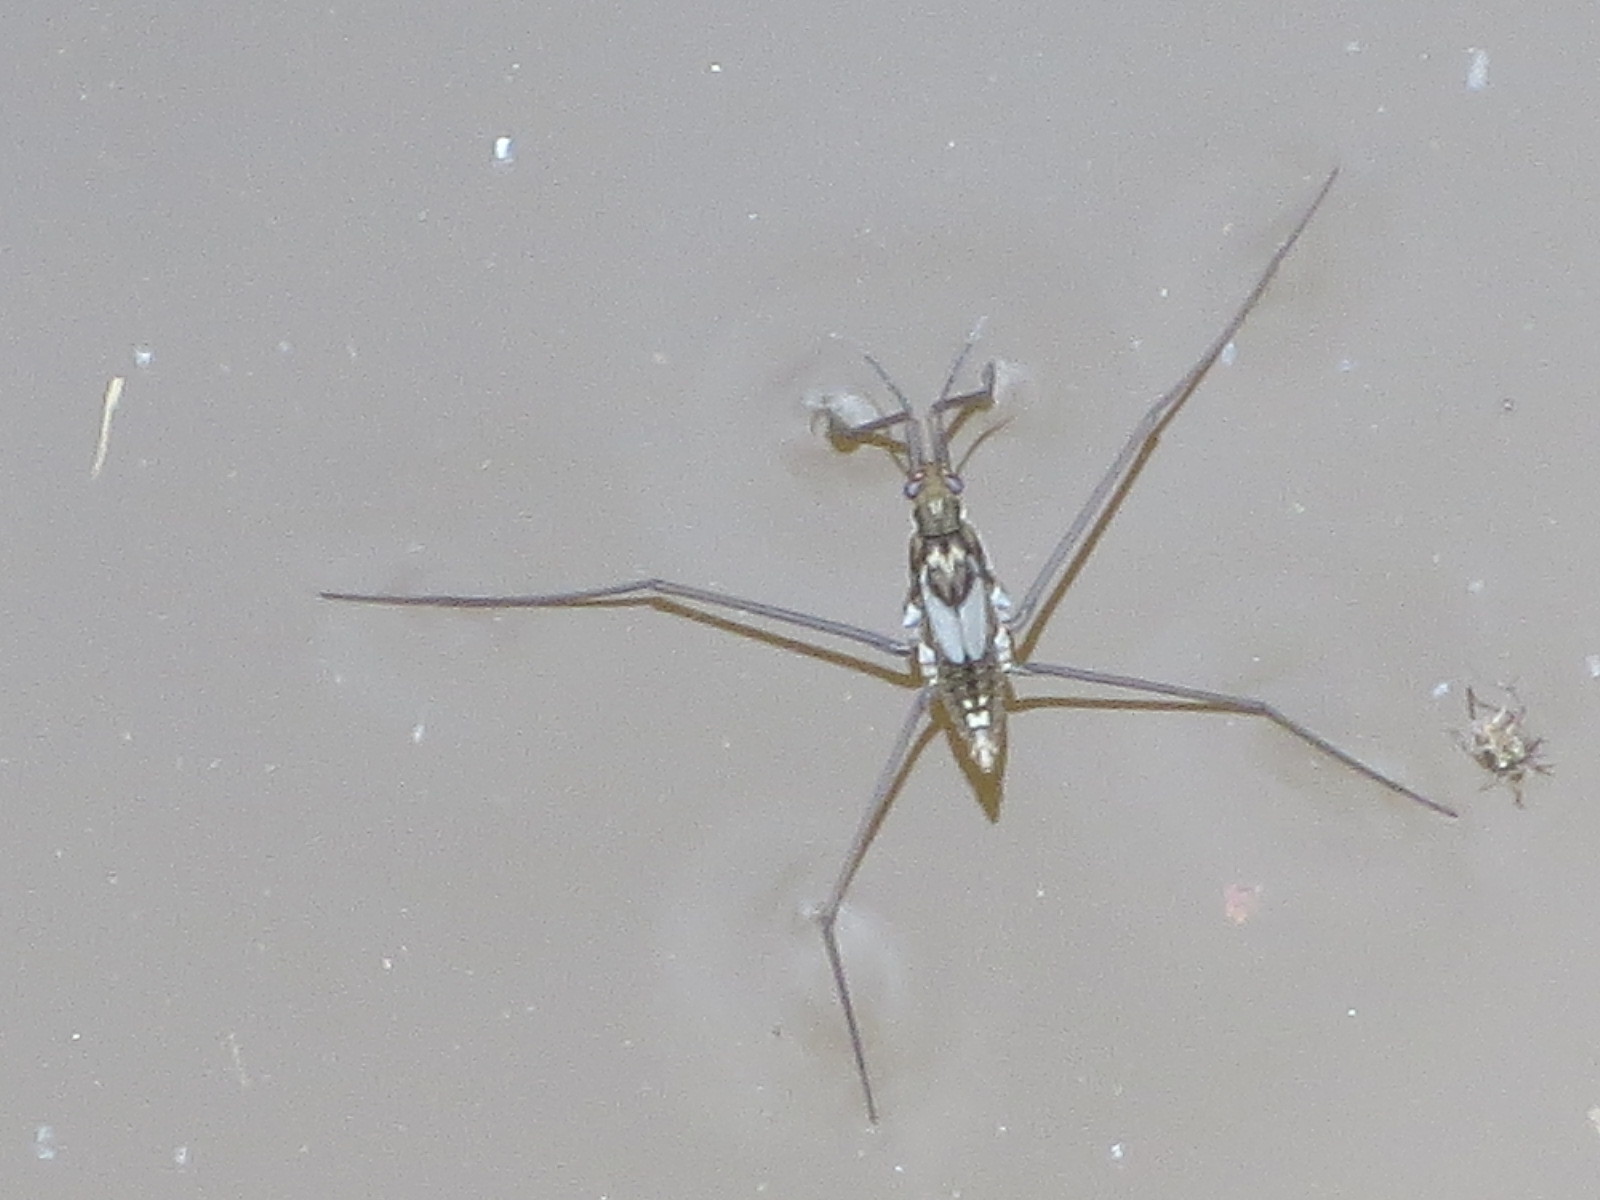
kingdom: Animalia
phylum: Arthropoda
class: Insecta
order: Hemiptera
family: Gerridae
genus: Aquarius
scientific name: Aquarius
